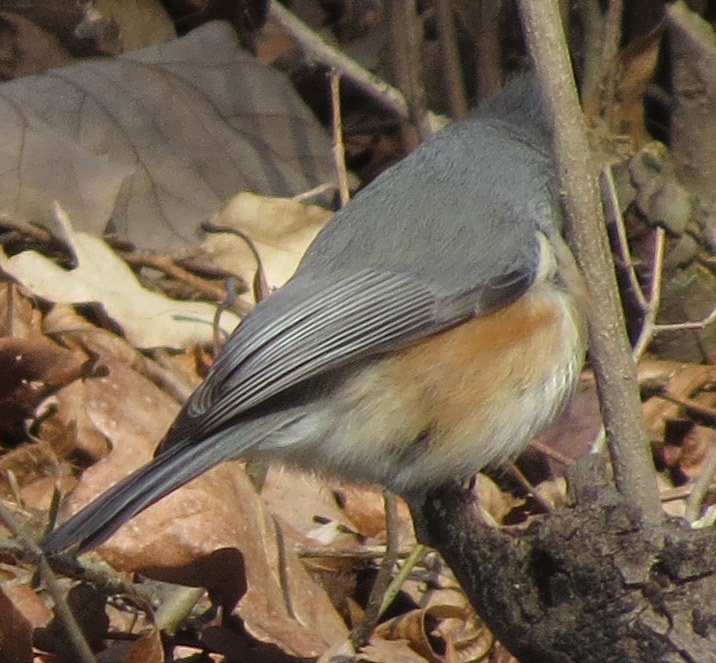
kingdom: Animalia
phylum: Chordata
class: Aves
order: Passeriformes
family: Paridae
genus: Baeolophus
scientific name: Baeolophus bicolor
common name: Tufted titmouse
